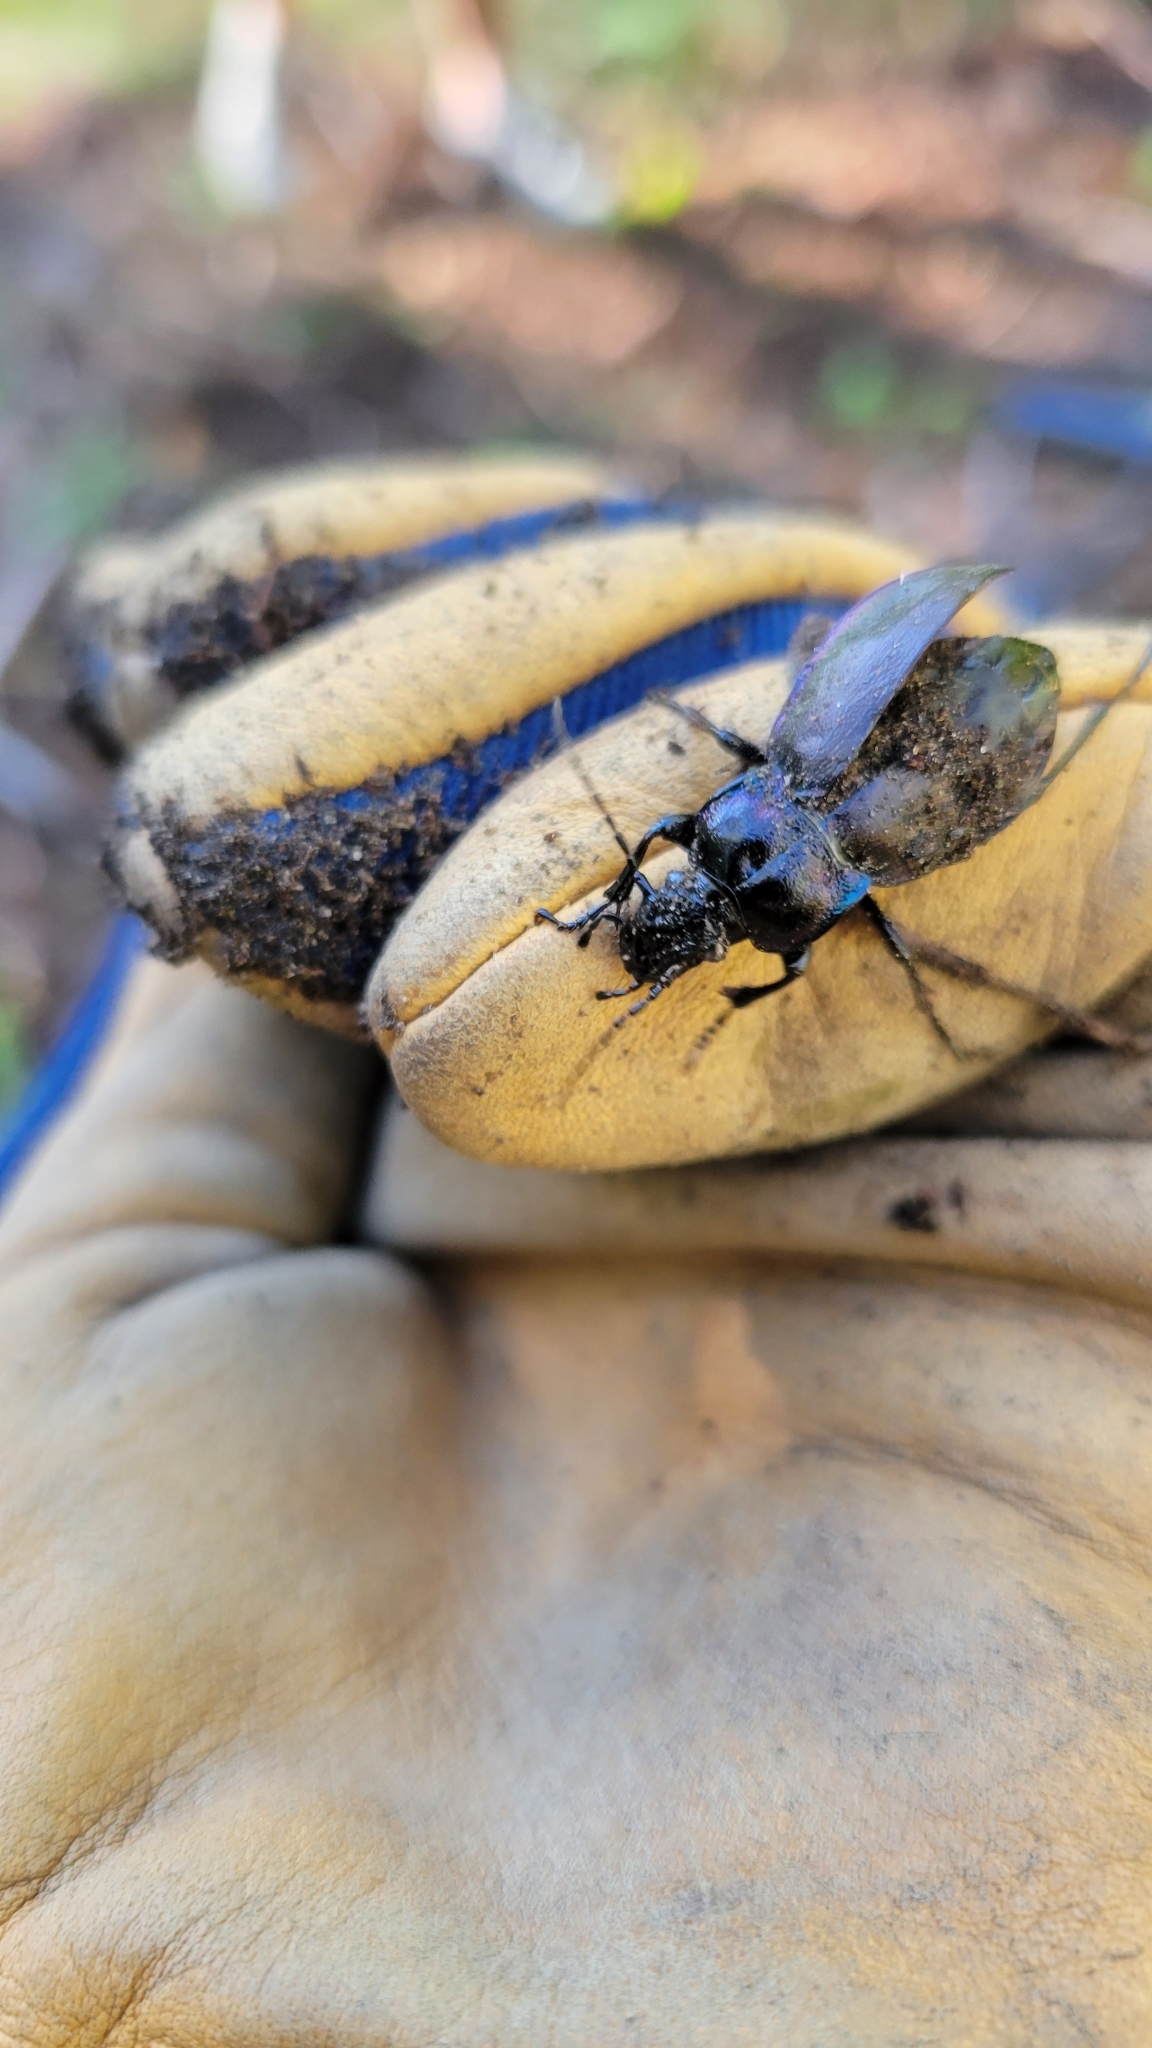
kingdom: Animalia
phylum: Arthropoda
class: Insecta
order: Coleoptera
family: Carabidae
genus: Carabus
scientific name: Carabus nemoralis
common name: European ground beetle
